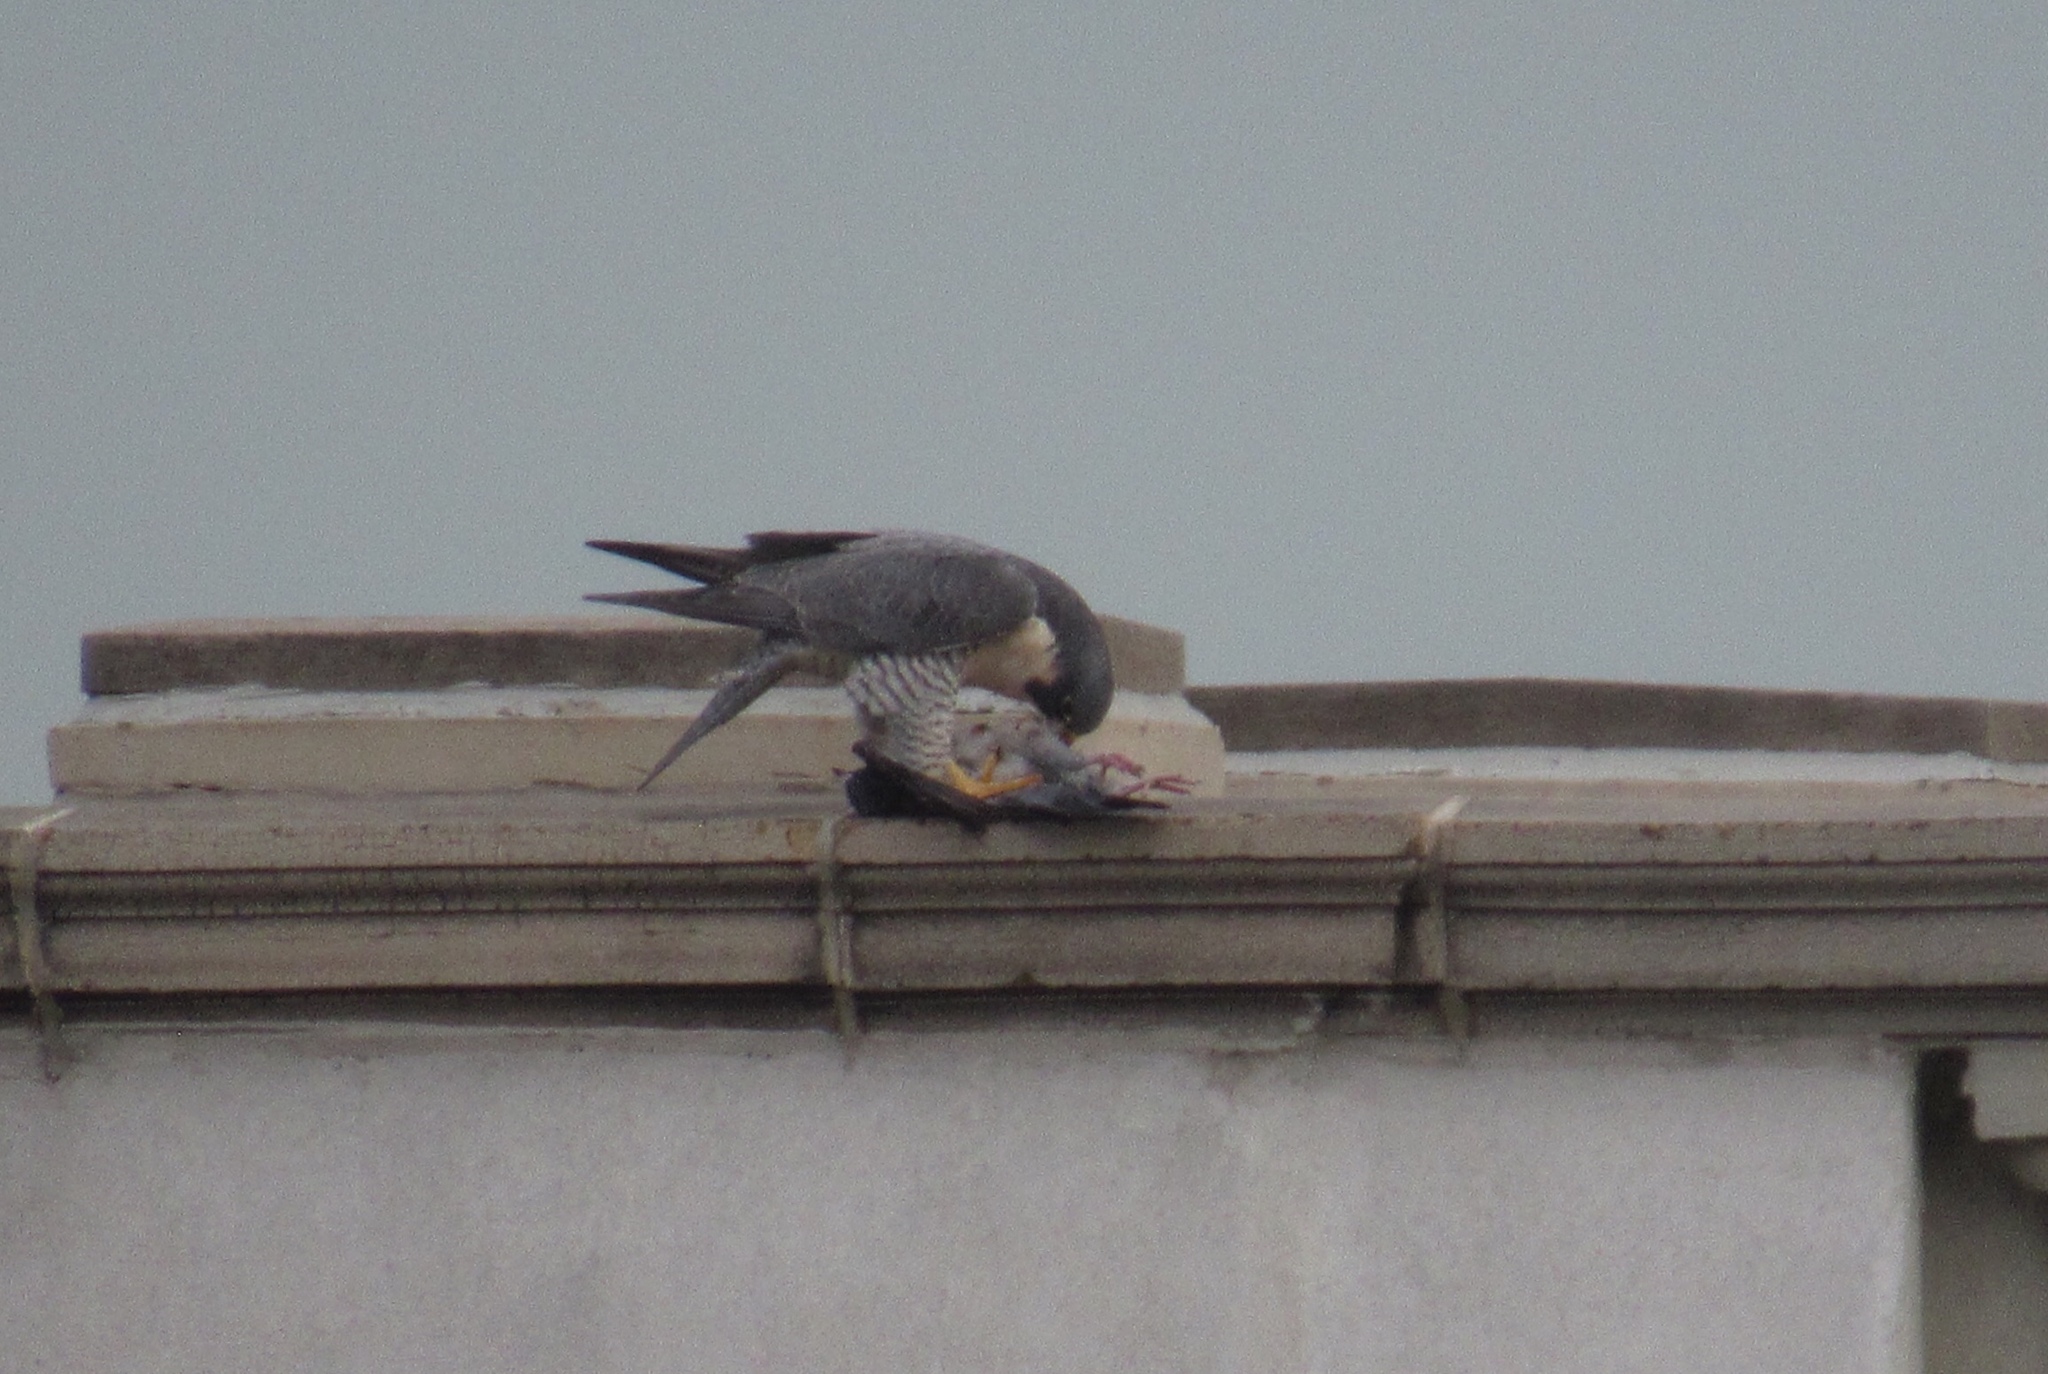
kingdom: Animalia
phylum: Chordata
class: Aves
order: Falconiformes
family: Falconidae
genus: Falco
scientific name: Falco peregrinus
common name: Peregrine falcon
